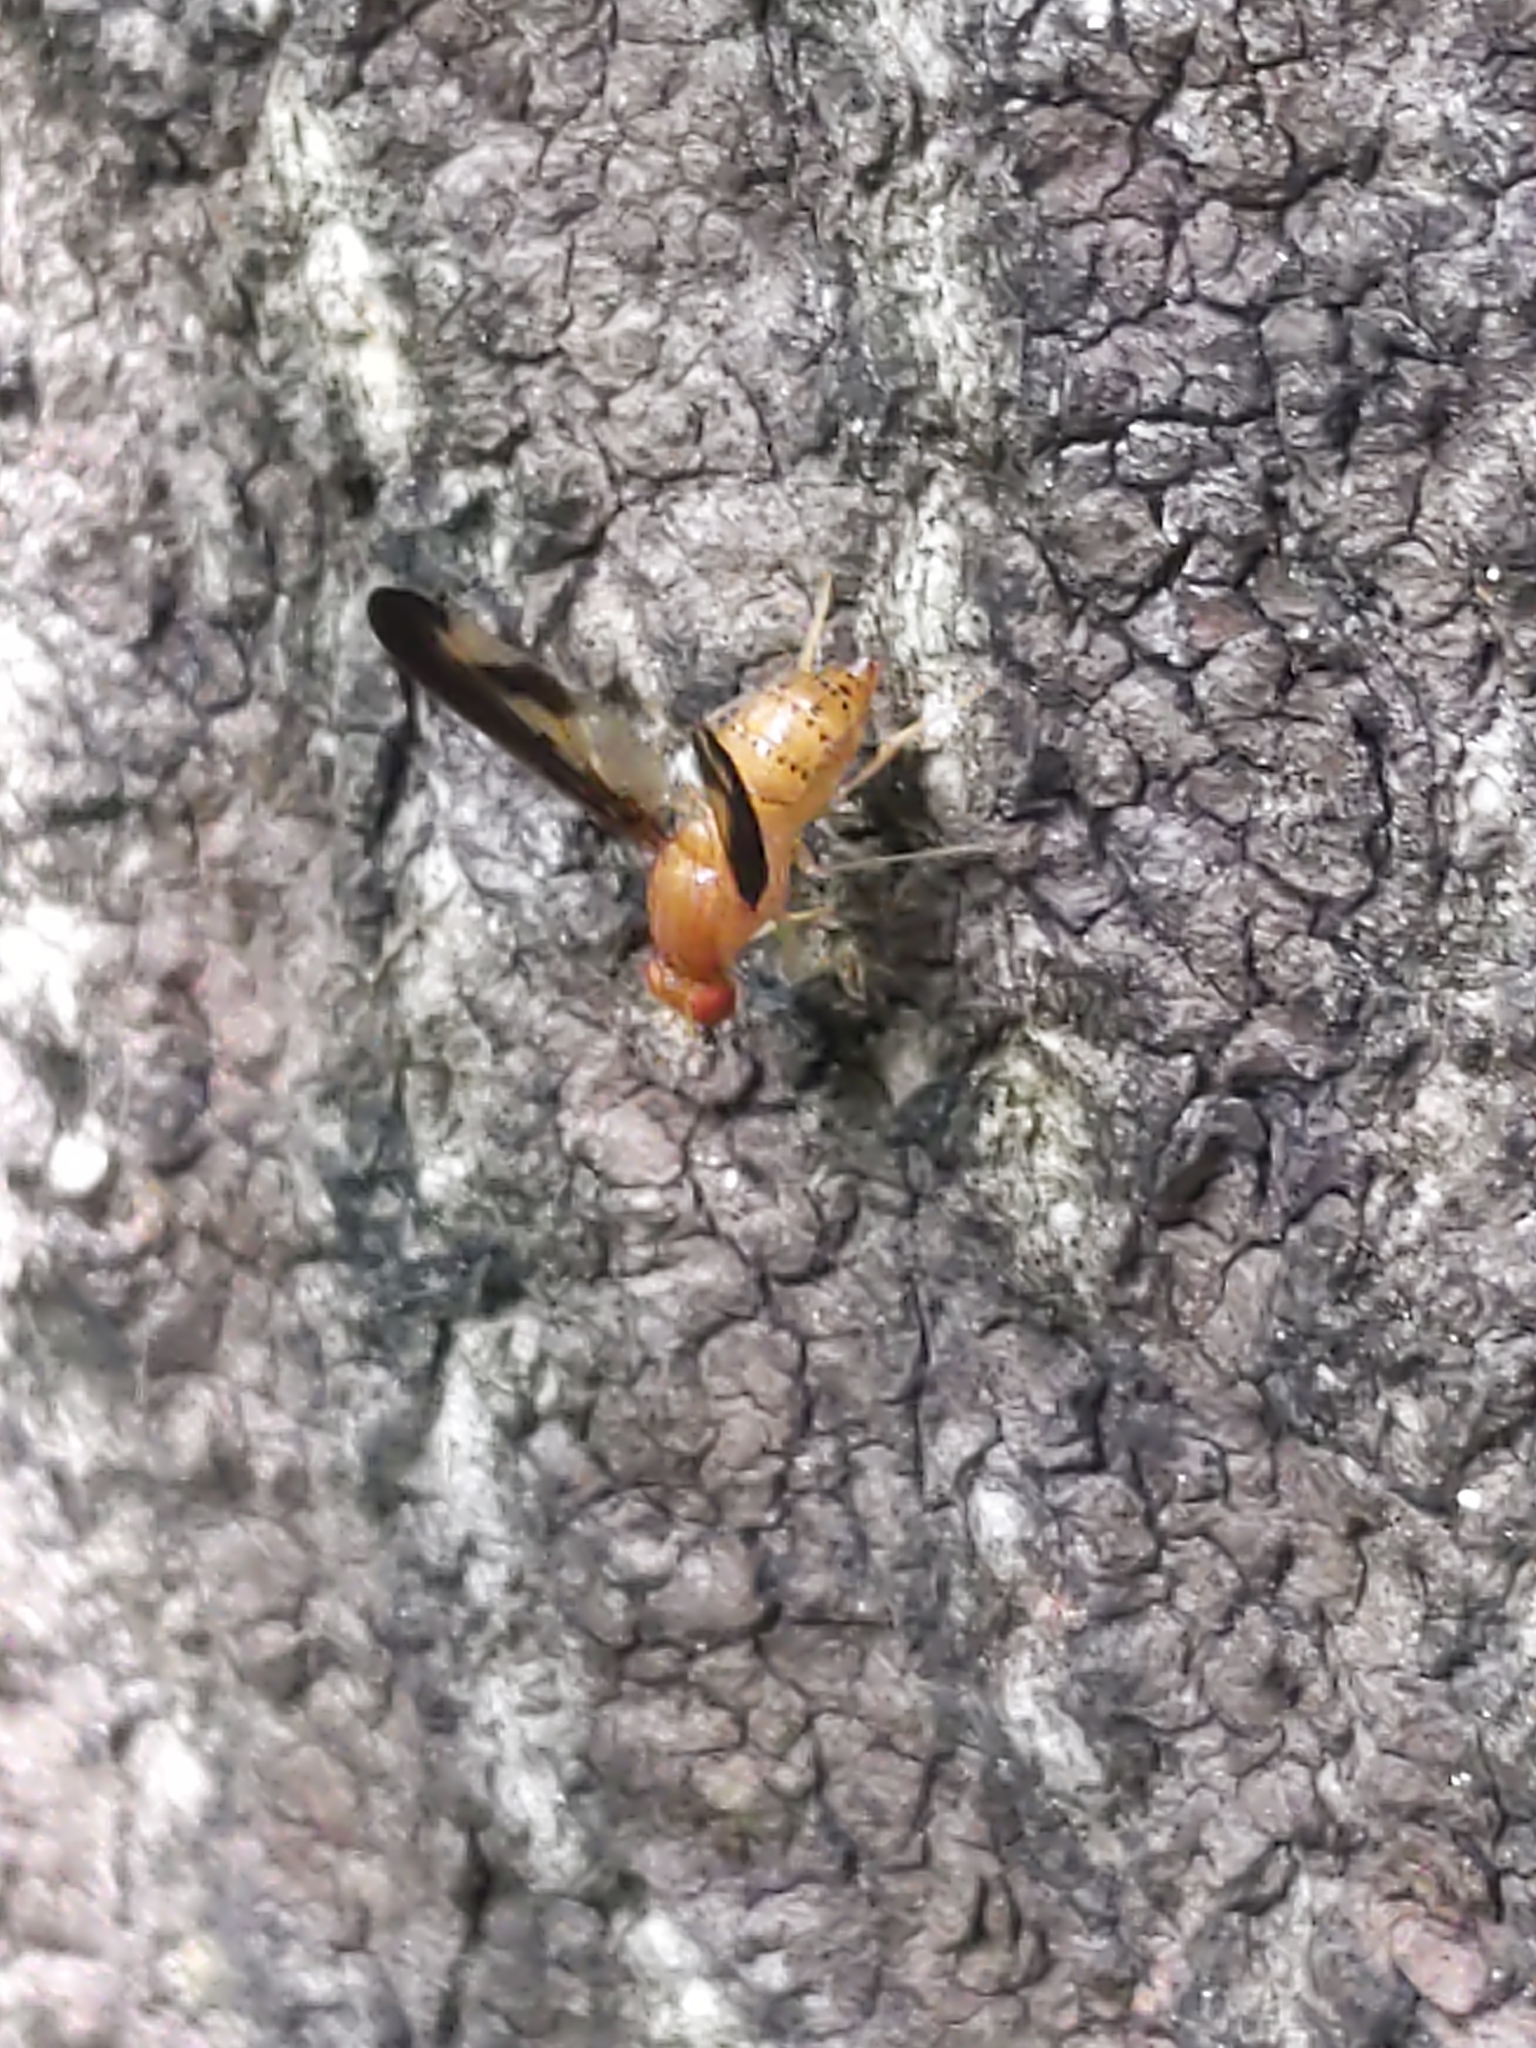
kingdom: Animalia
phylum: Arthropoda
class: Insecta
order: Diptera
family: Pallopteridae
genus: Toxonevra
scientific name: Toxonevra superba
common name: Antlered flutter fly
